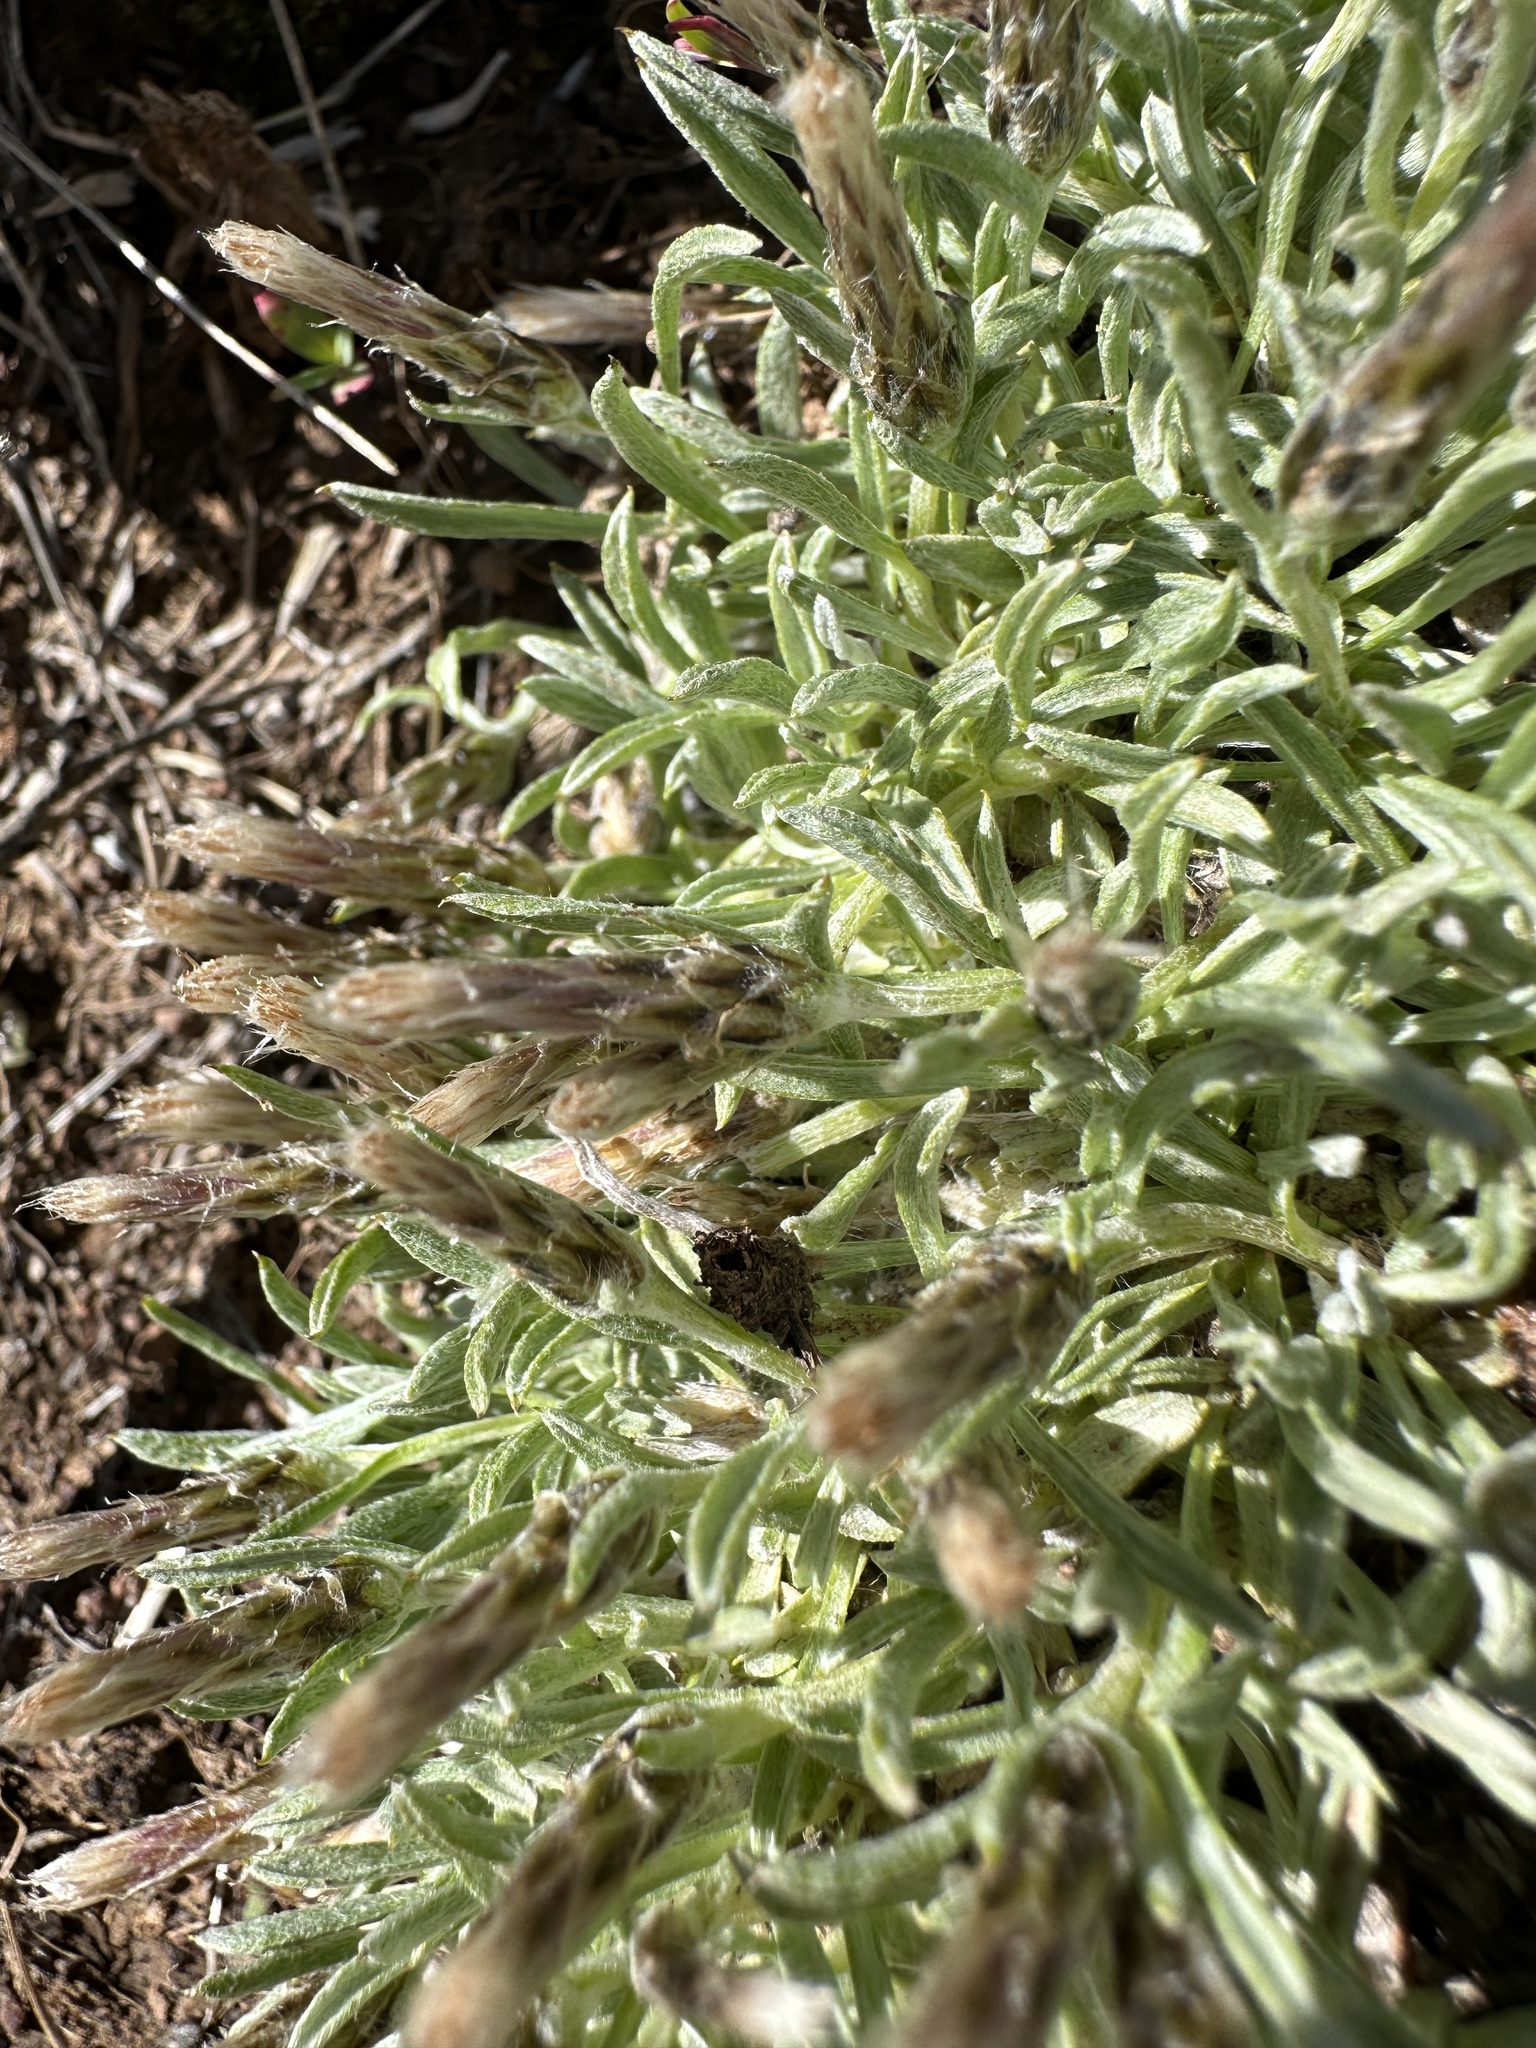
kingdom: Plantae
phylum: Tracheophyta
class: Magnoliopsida
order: Asterales
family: Asteraceae
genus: Antennaria
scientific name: Antennaria dimorpha
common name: Cushion pussytoes
